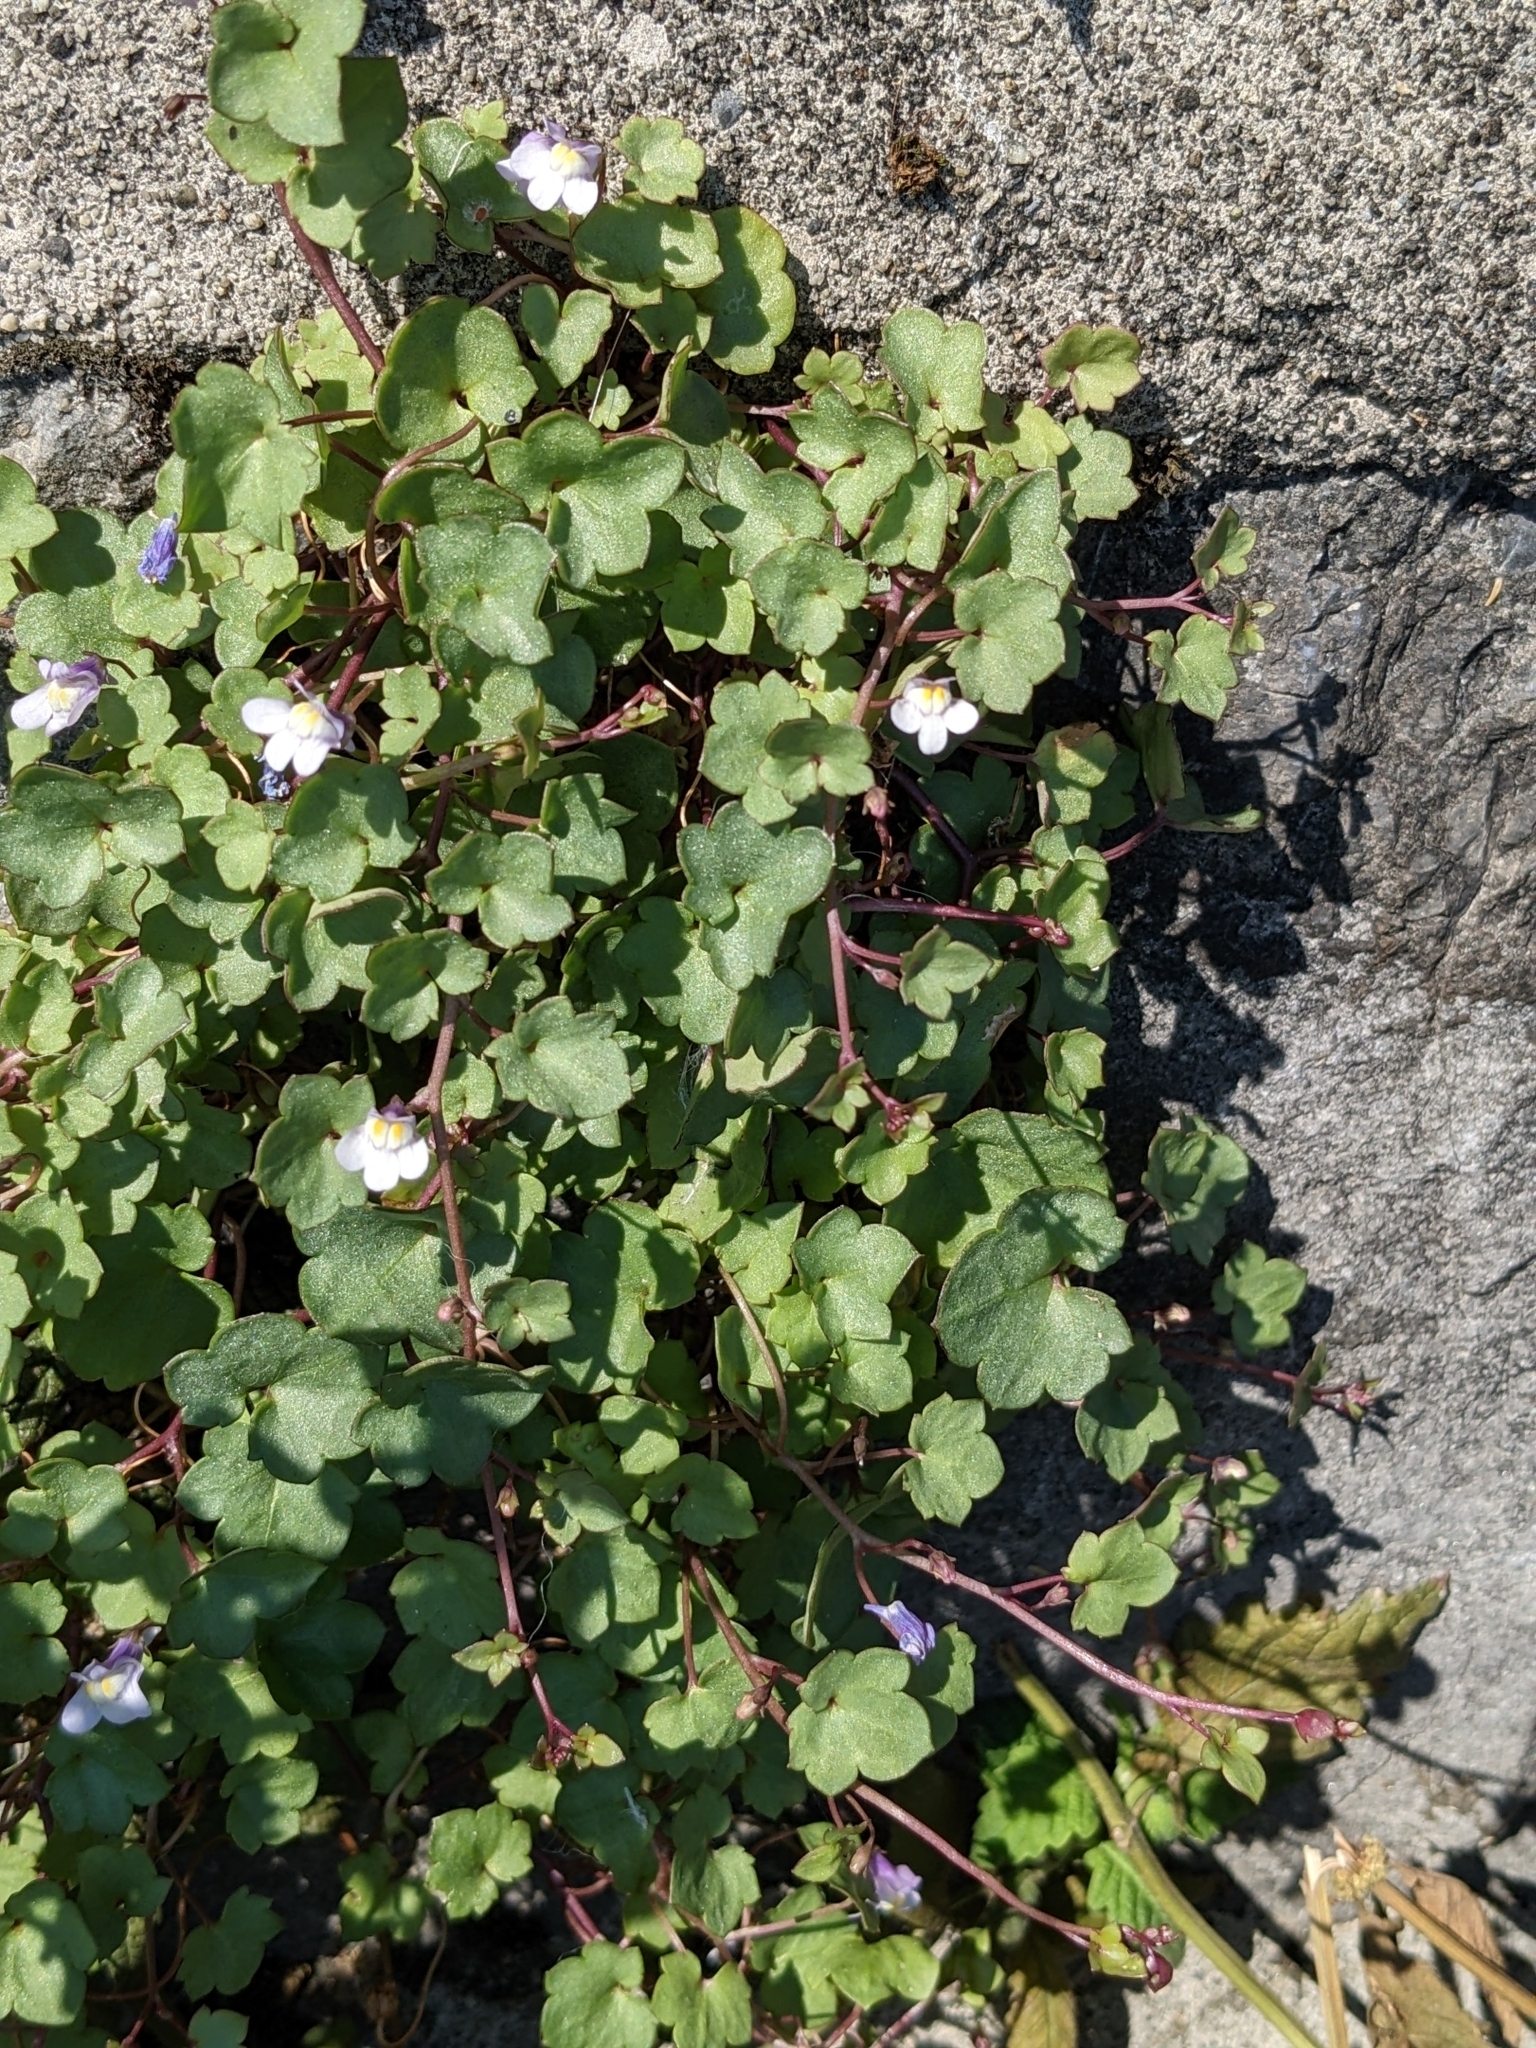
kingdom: Plantae
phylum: Tracheophyta
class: Magnoliopsida
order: Lamiales
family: Plantaginaceae
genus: Cymbalaria
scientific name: Cymbalaria muralis
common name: Ivy-leaved toadflax
